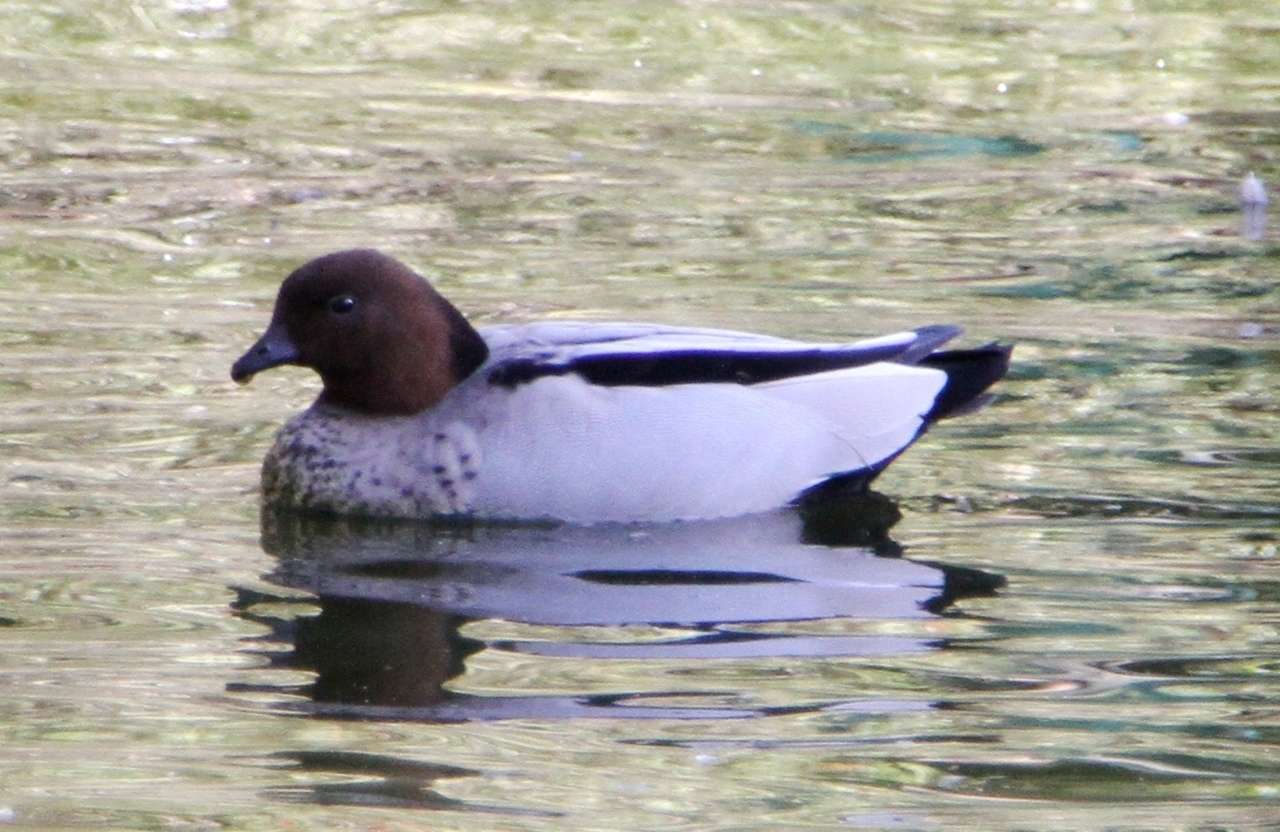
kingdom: Animalia
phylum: Chordata
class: Aves
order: Anseriformes
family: Anatidae
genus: Chenonetta
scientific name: Chenonetta jubata
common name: Maned duck
